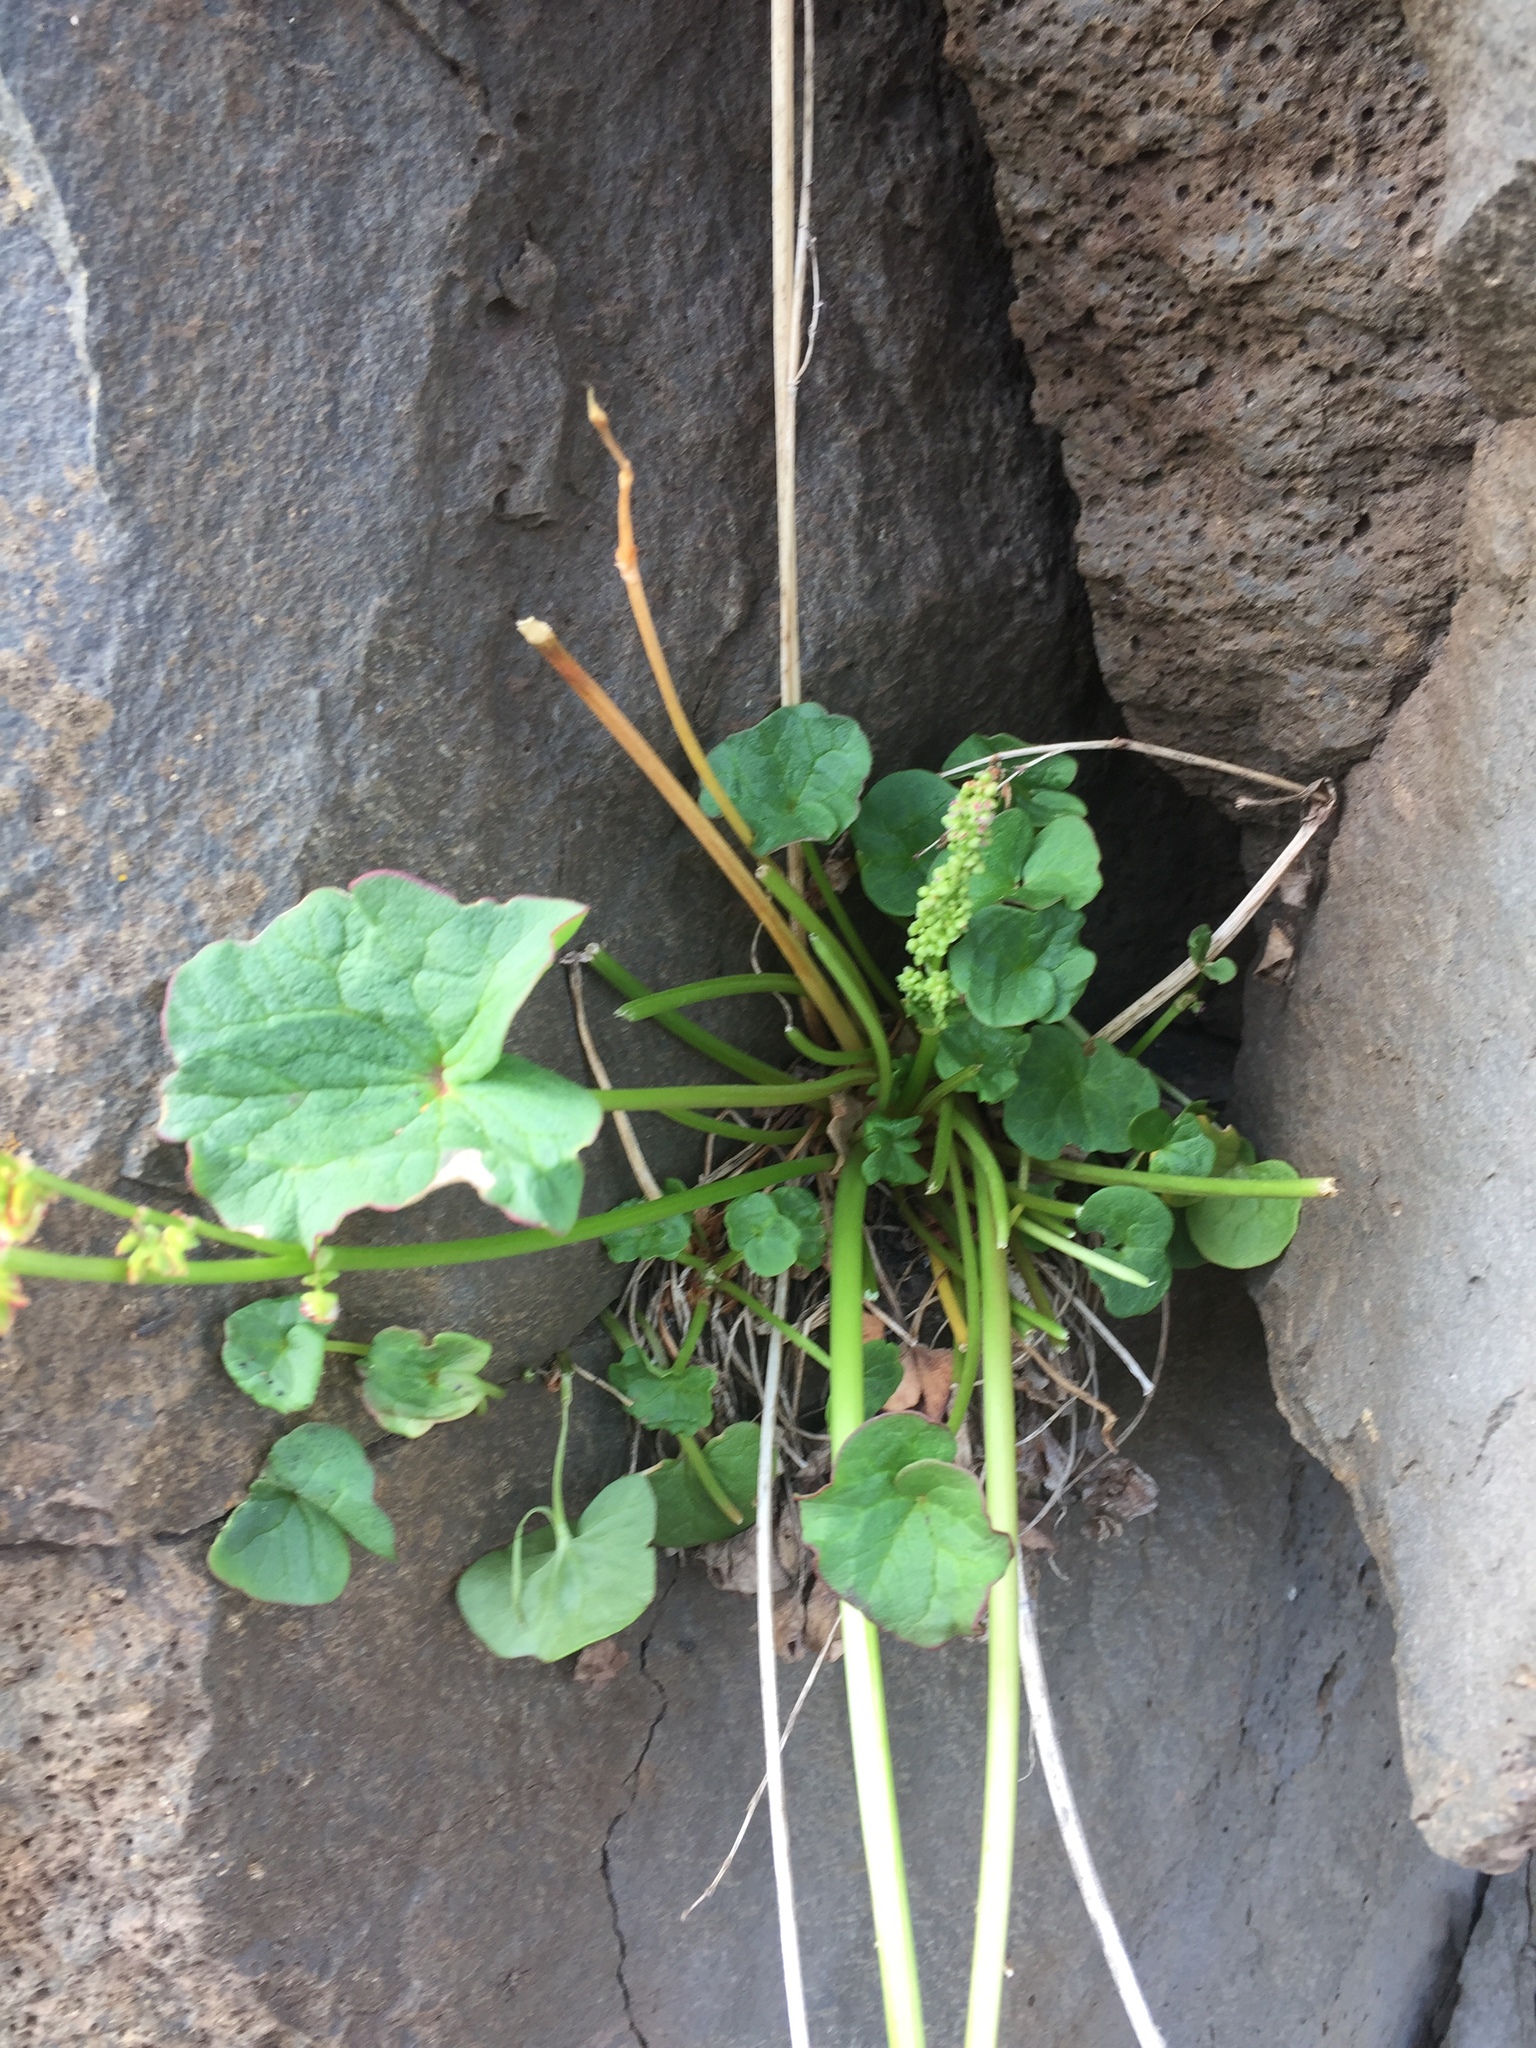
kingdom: Plantae
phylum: Tracheophyta
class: Magnoliopsida
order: Caryophyllales
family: Polygonaceae
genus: Oxyria
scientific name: Oxyria digyna
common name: Alpine mountain-sorrel
